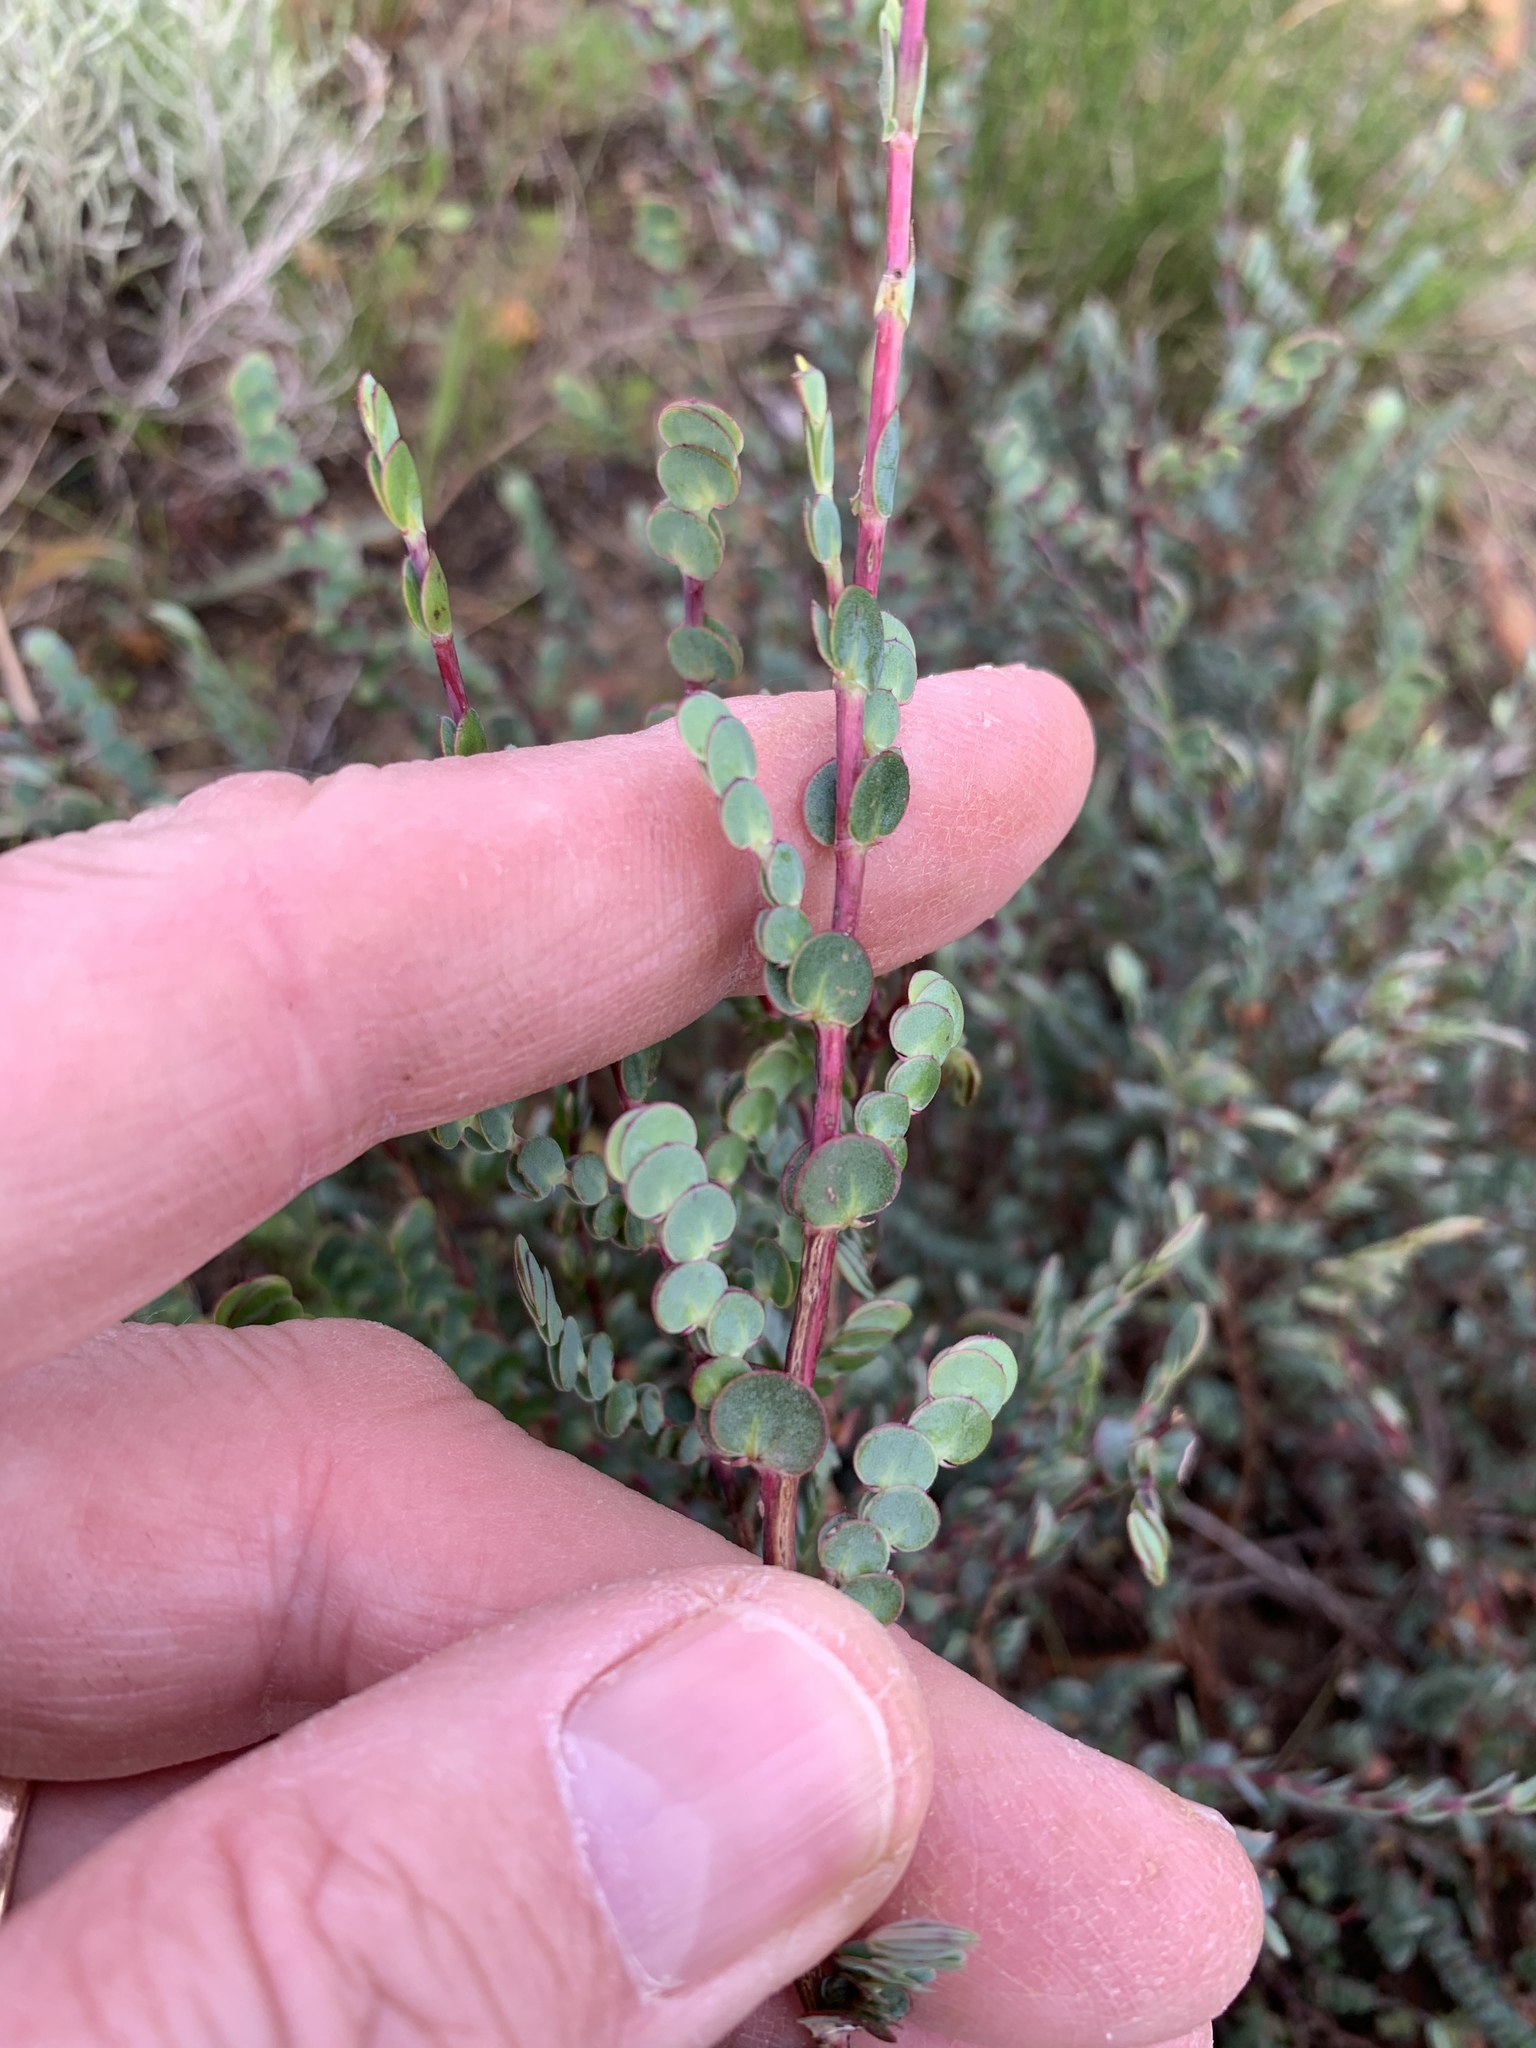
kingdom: Plantae
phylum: Tracheophyta
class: Magnoliopsida
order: Rosales
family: Rosaceae
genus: Cliffortia
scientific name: Cliffortia phyllanthoides
